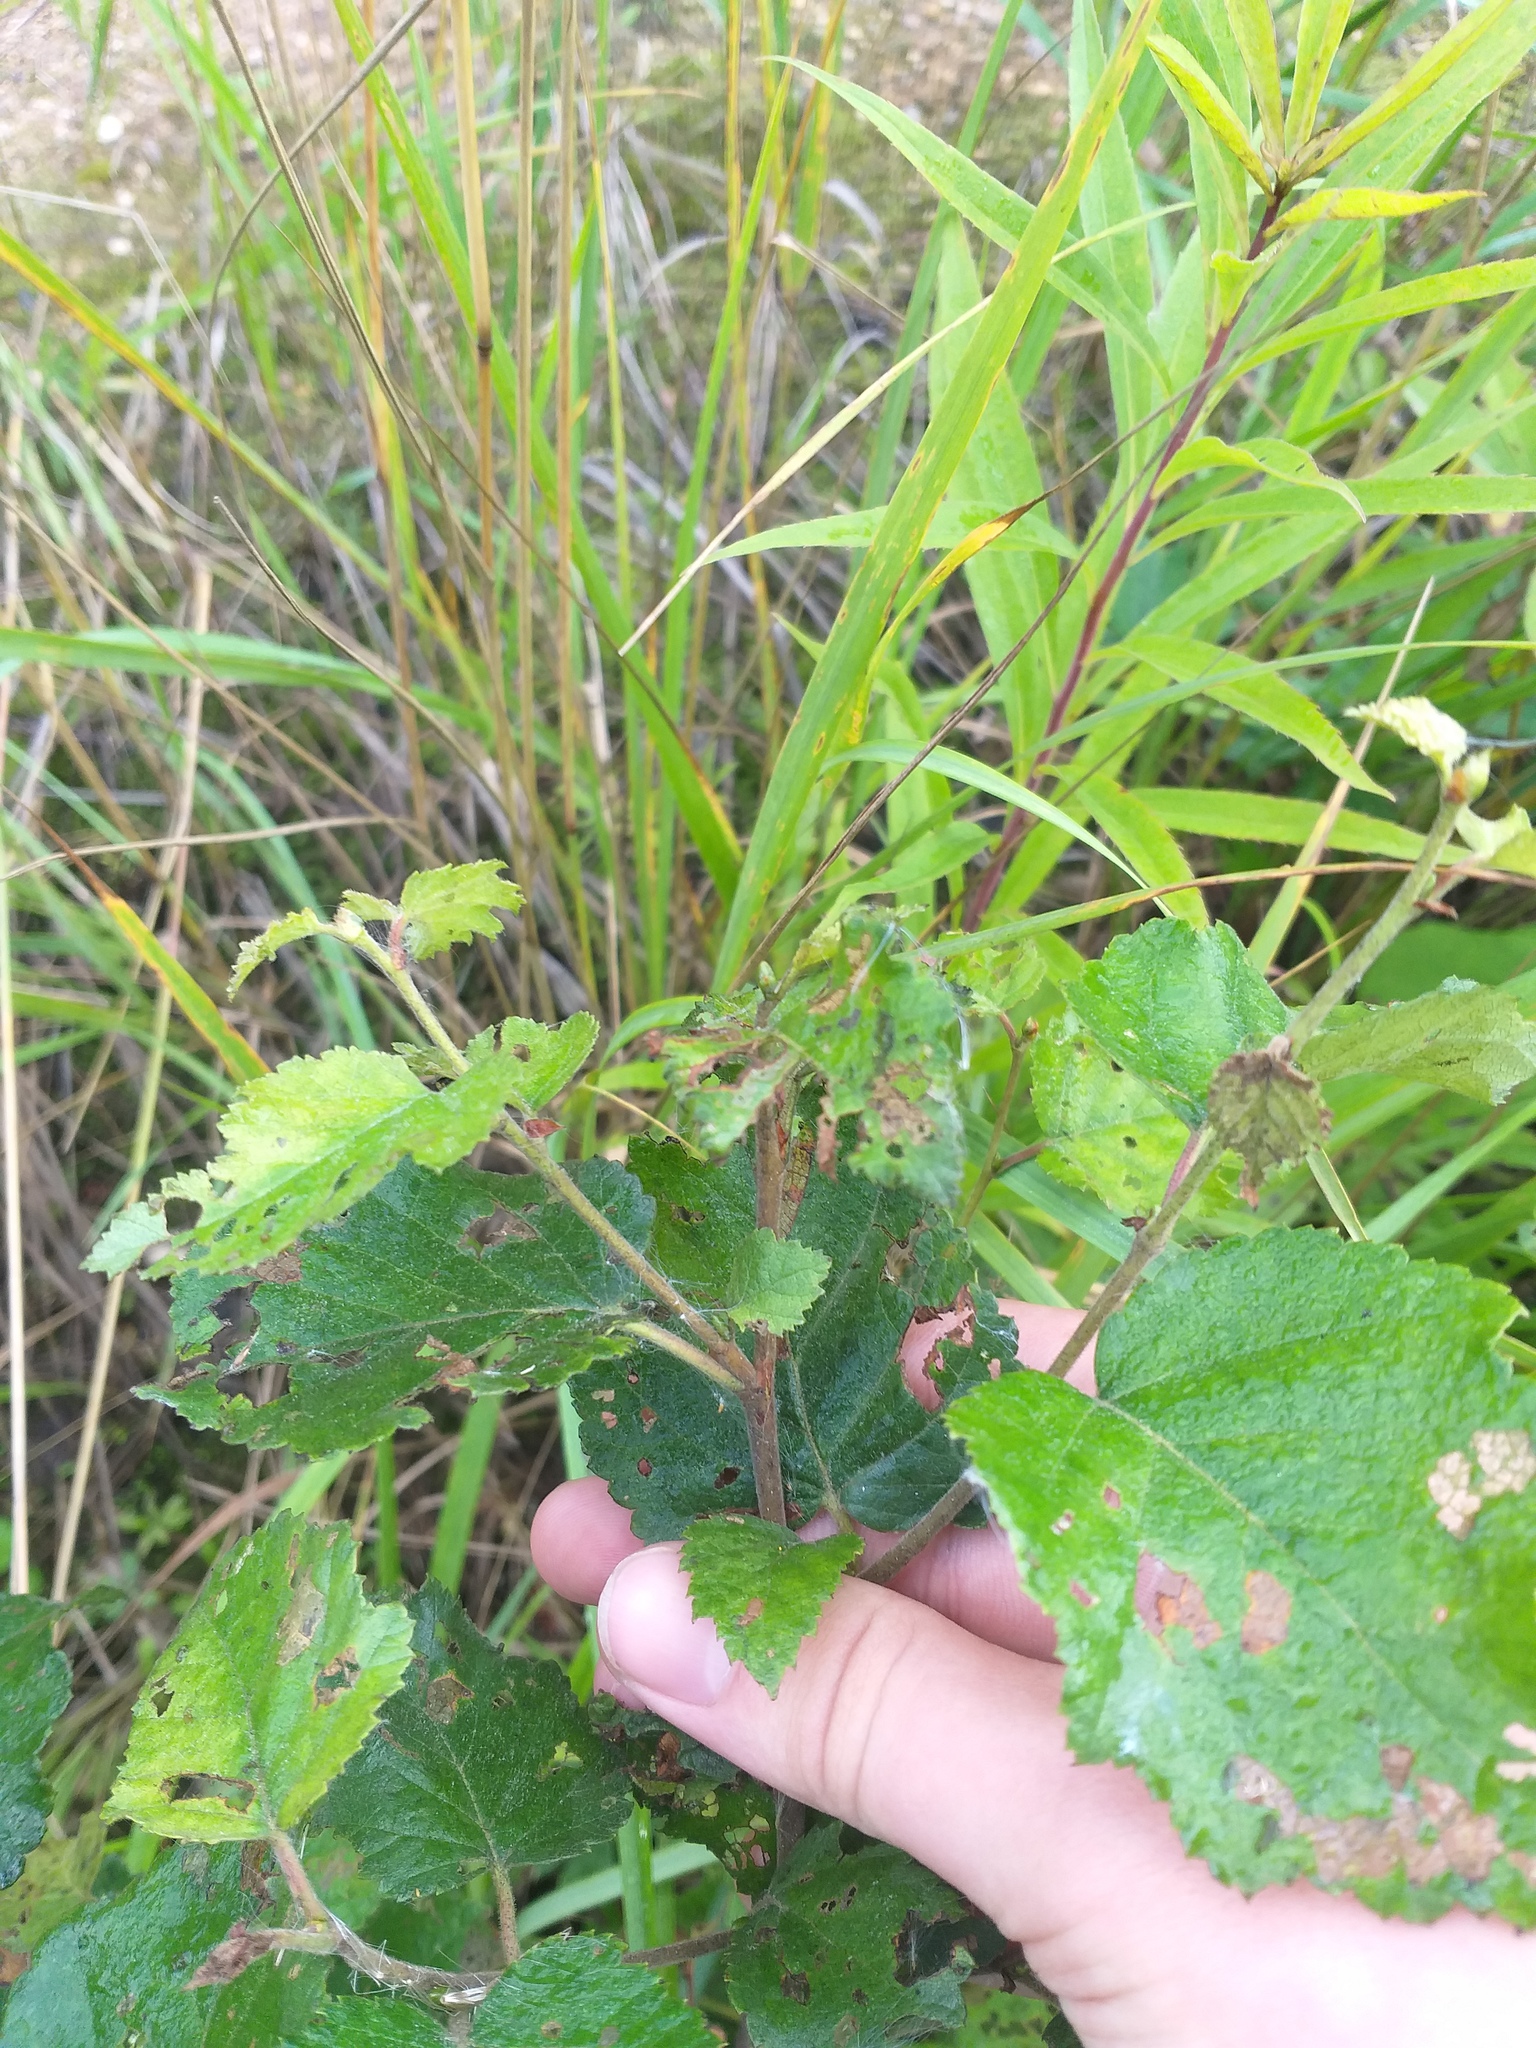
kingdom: Plantae
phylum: Tracheophyta
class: Magnoliopsida
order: Fagales
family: Betulaceae
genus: Betula
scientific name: Betula pubescens
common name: Downy birch
